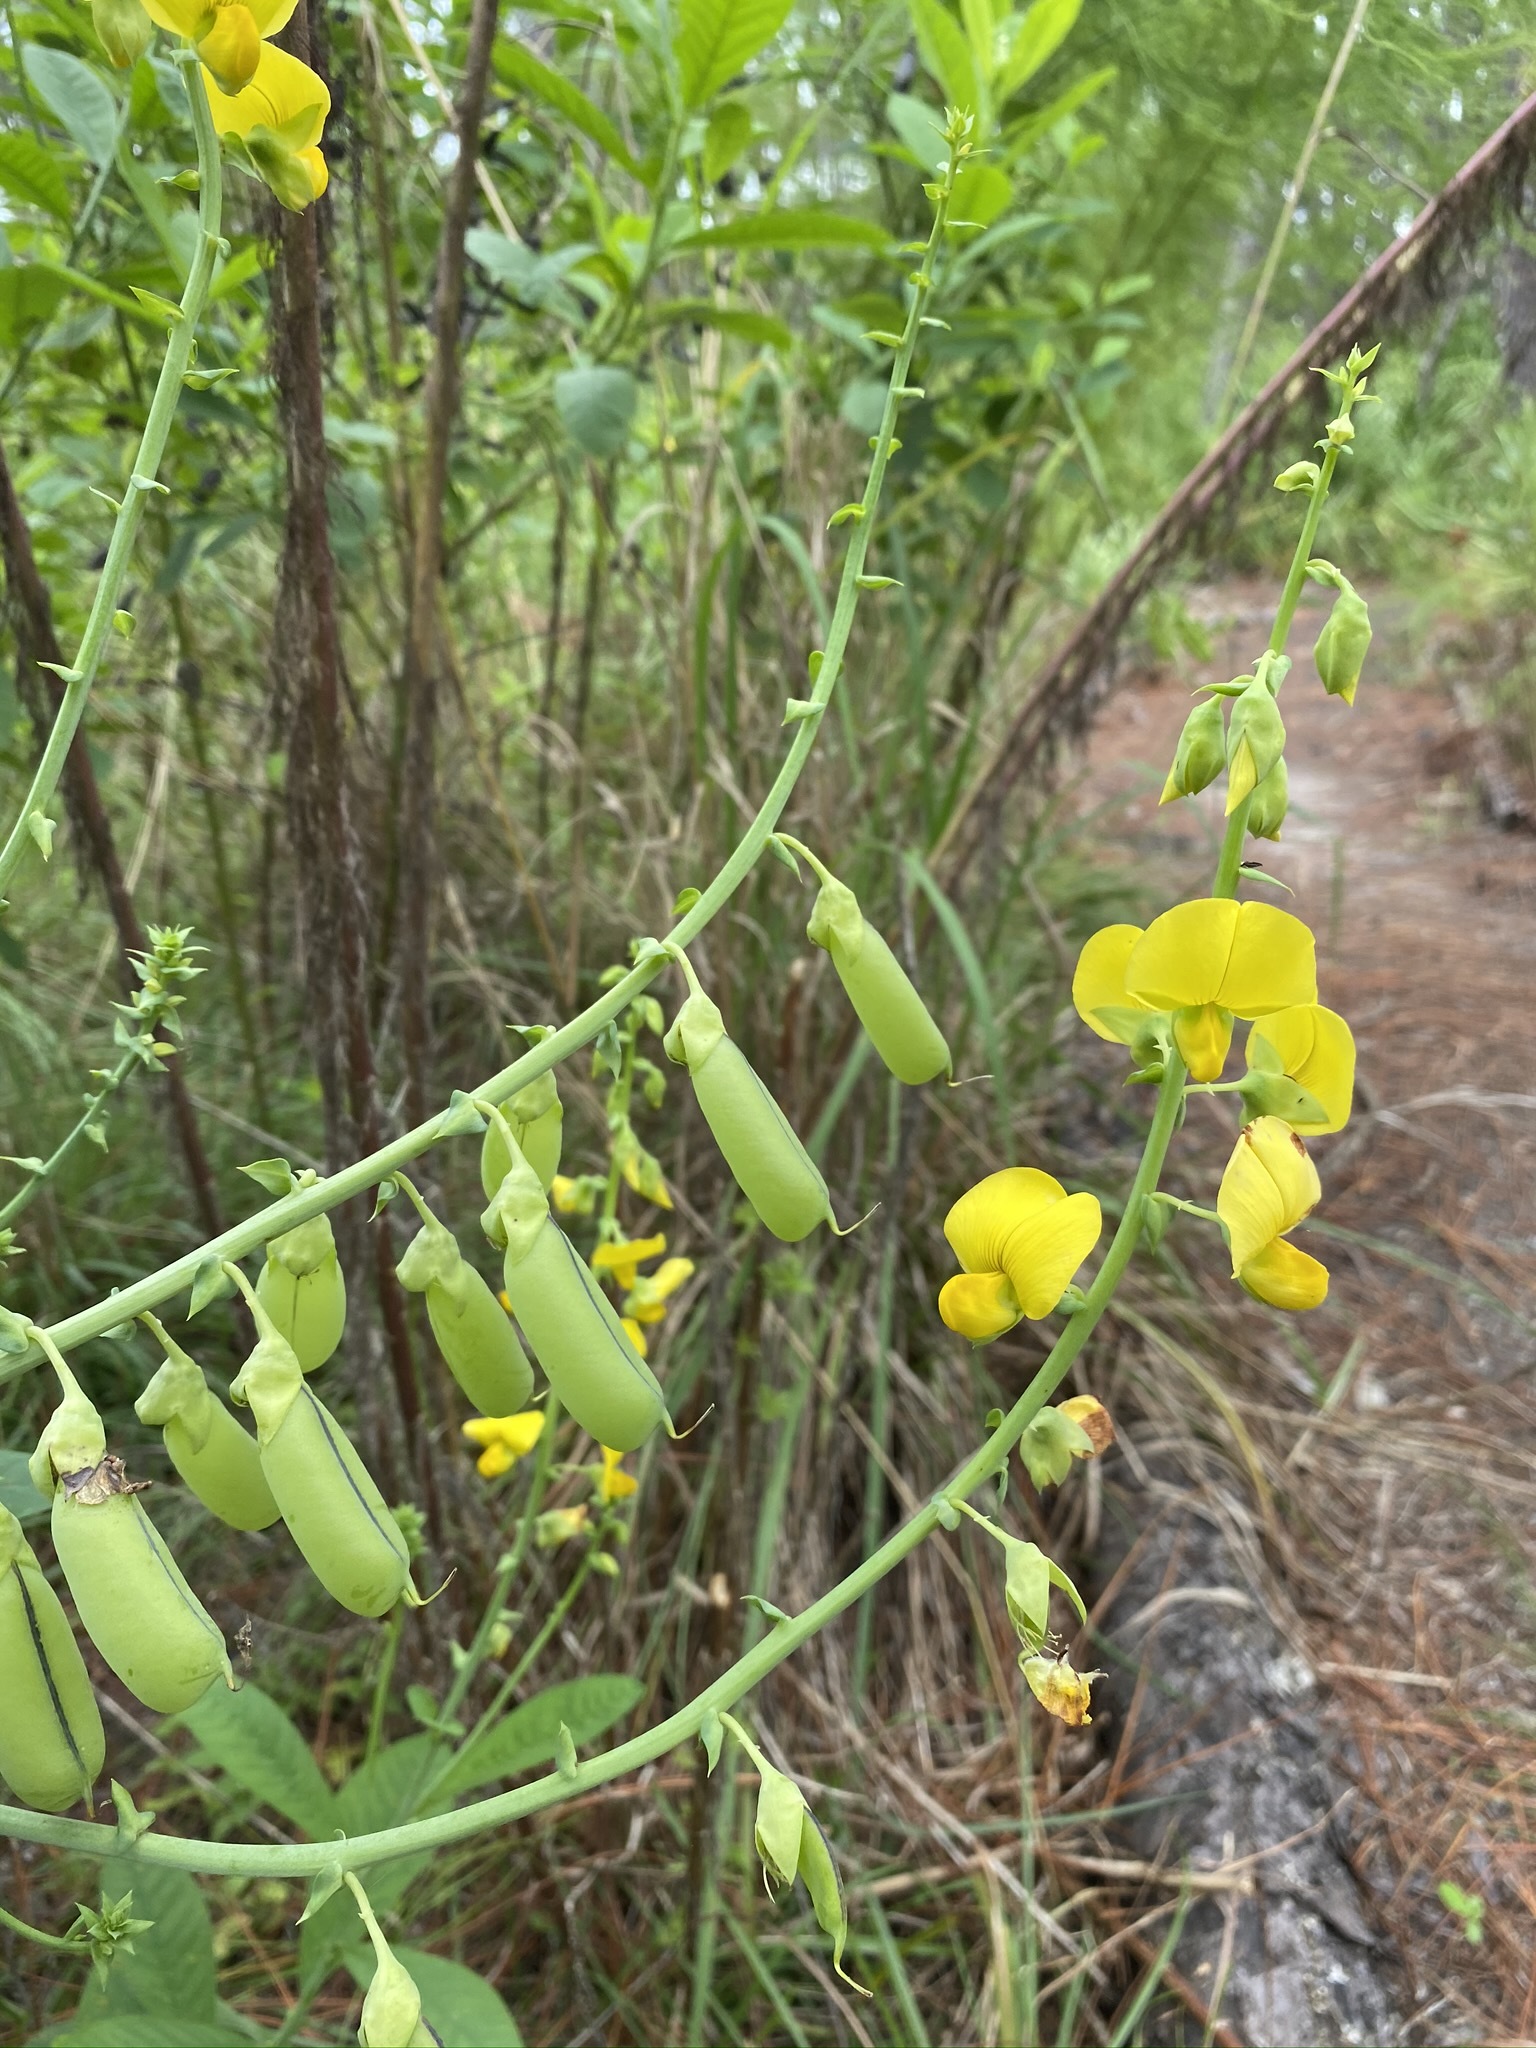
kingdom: Plantae
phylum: Tracheophyta
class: Magnoliopsida
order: Fabales
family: Fabaceae
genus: Crotalaria
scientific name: Crotalaria spectabilis
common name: Showy rattlebox
